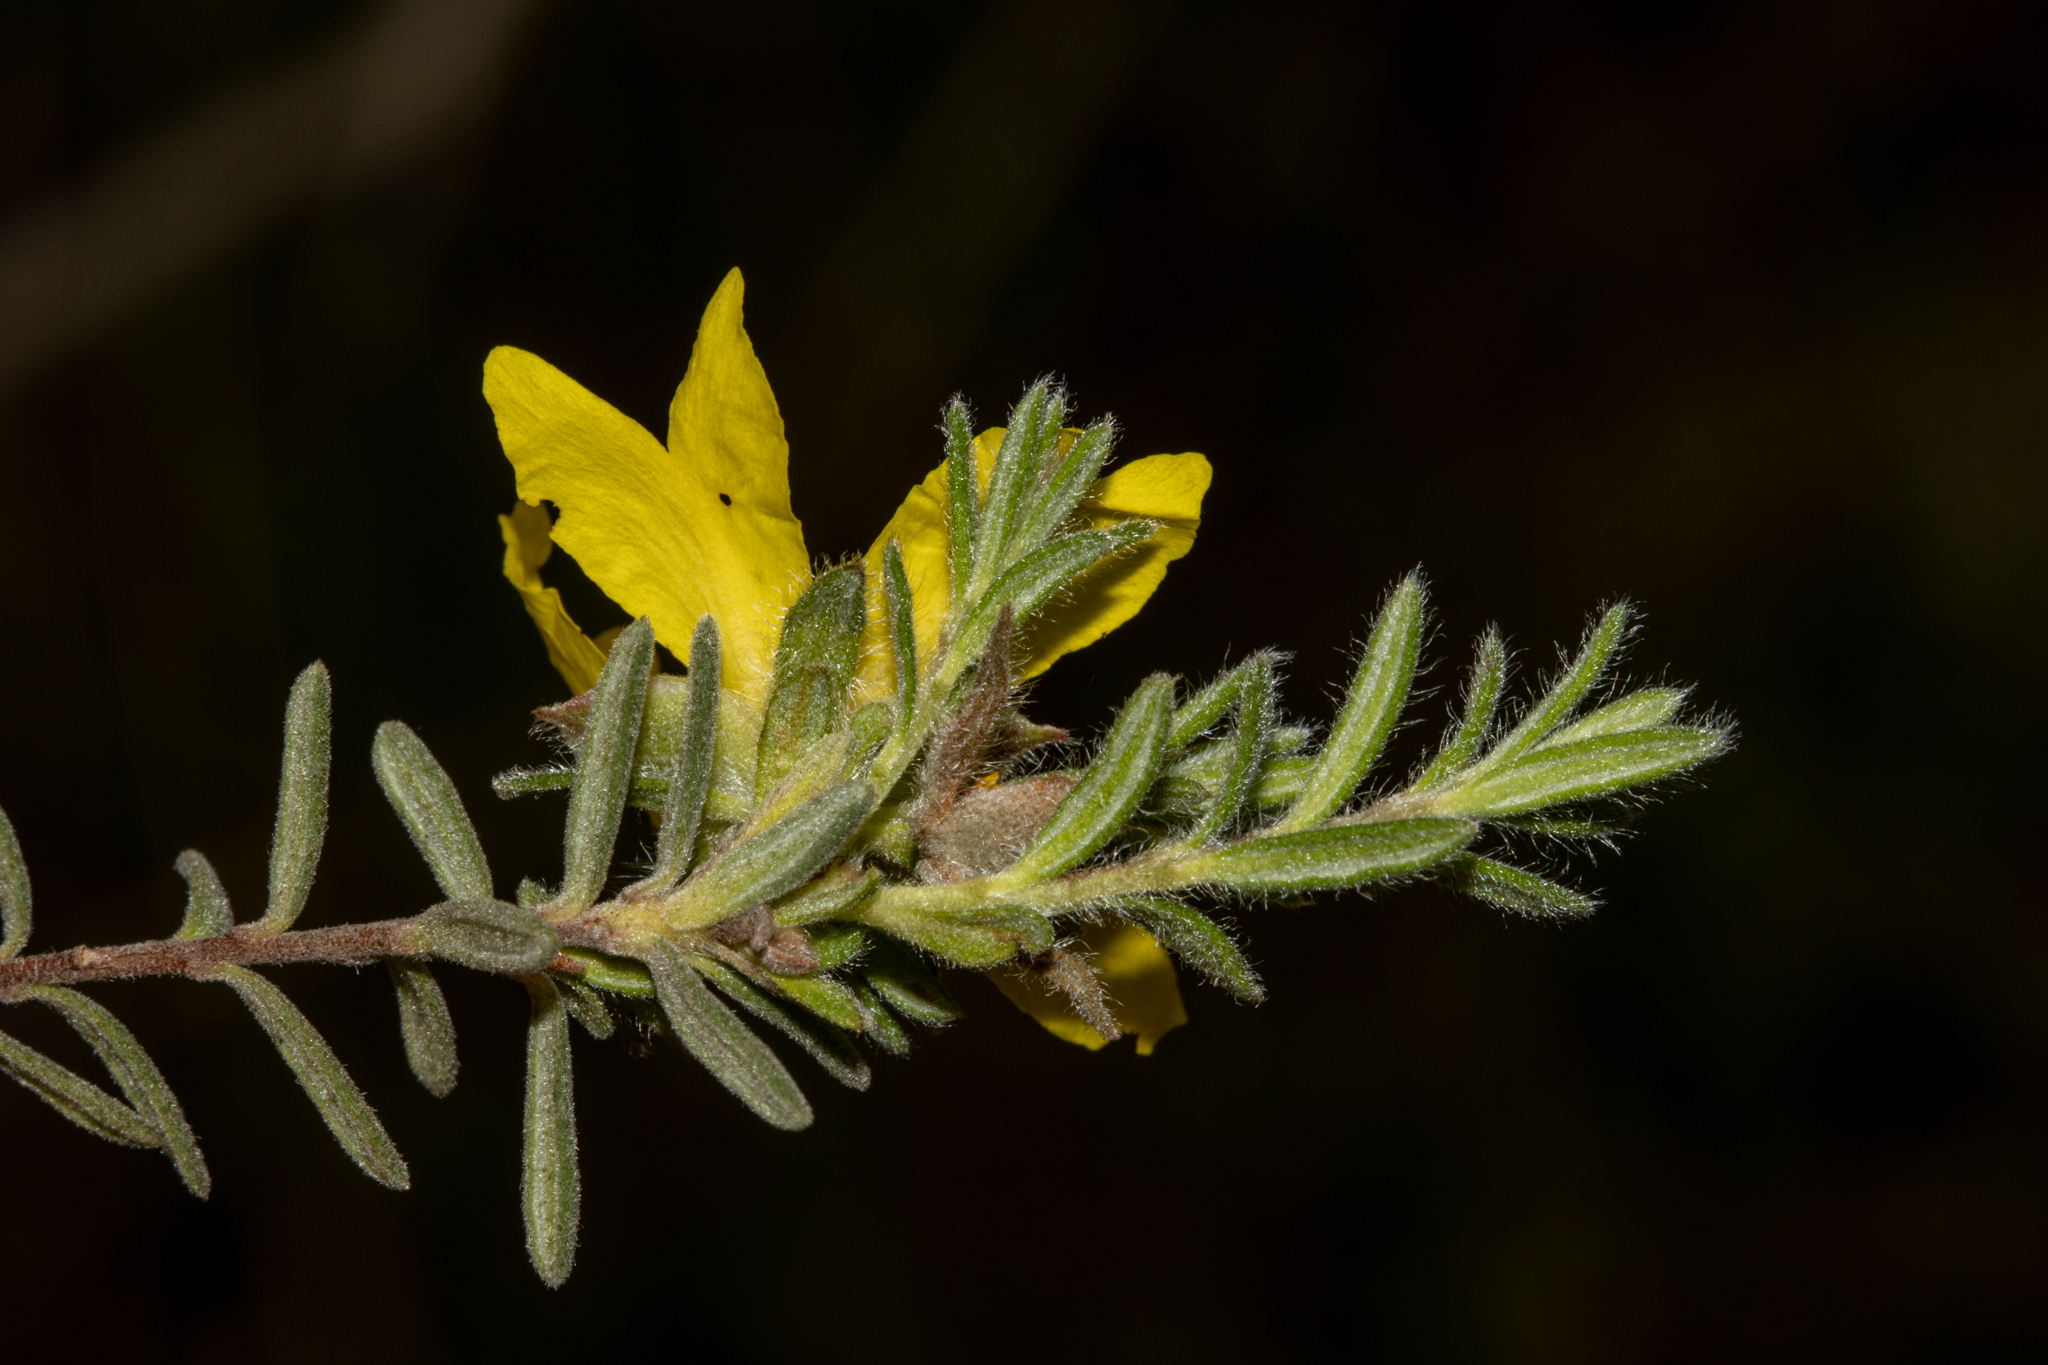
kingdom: Plantae
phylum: Tracheophyta
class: Magnoliopsida
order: Dilleniales
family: Dilleniaceae
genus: Hibbertia
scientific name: Hibbertia crinita
